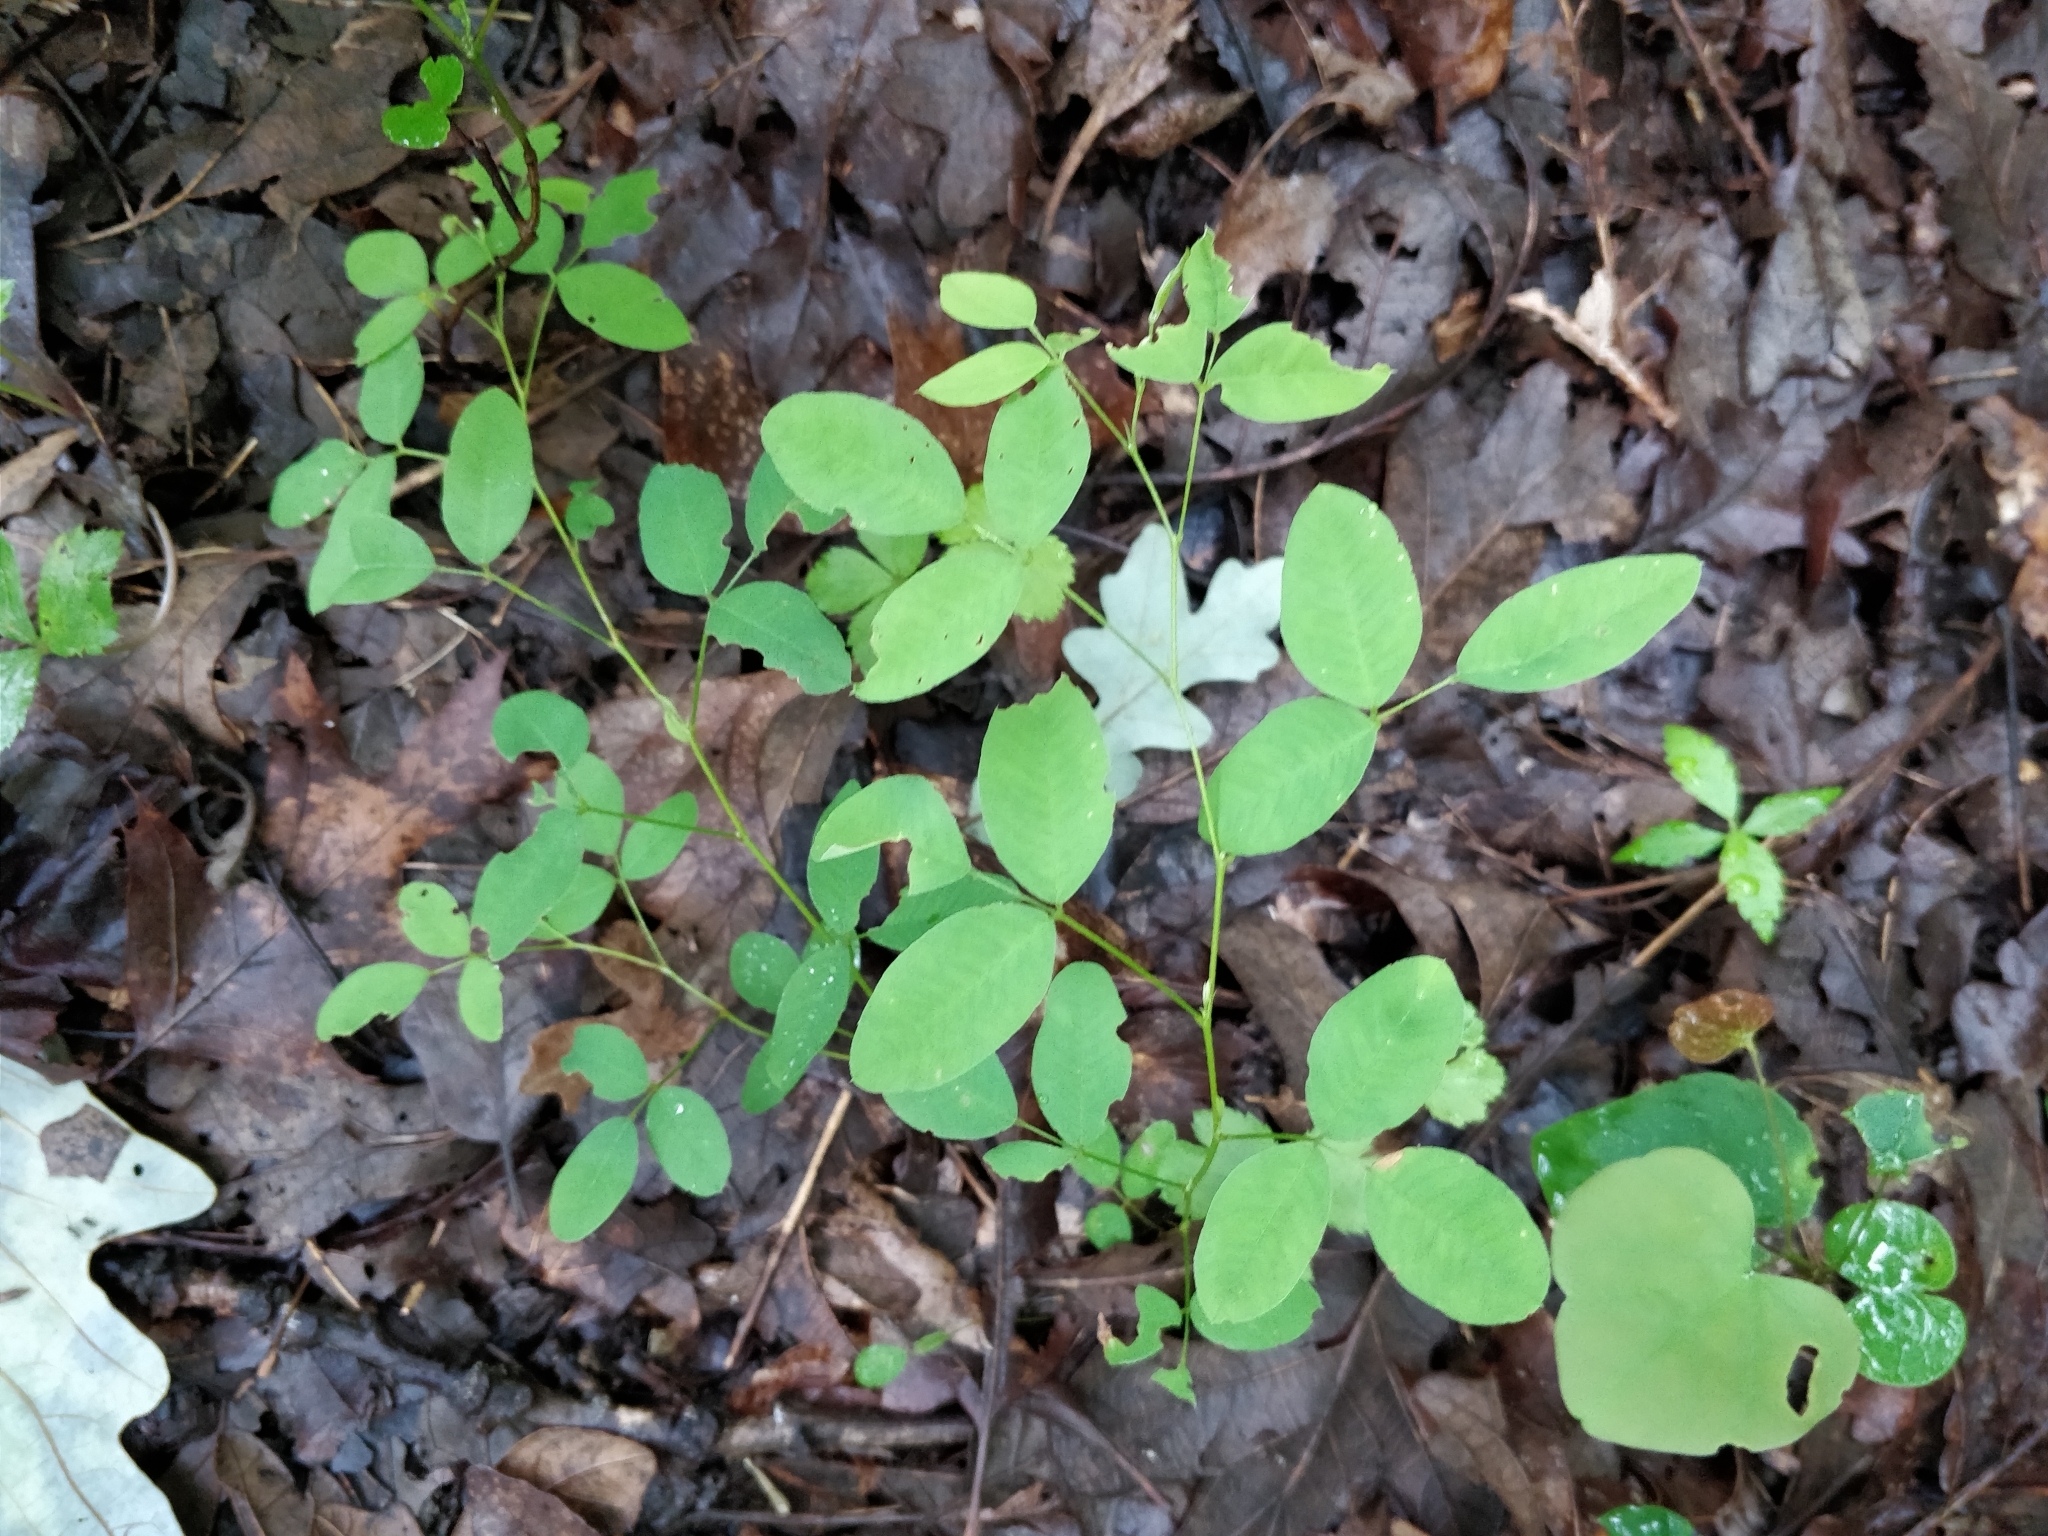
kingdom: Plantae
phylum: Tracheophyta
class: Magnoliopsida
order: Fabales
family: Fabaceae
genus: Lespedeza
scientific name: Lespedeza
